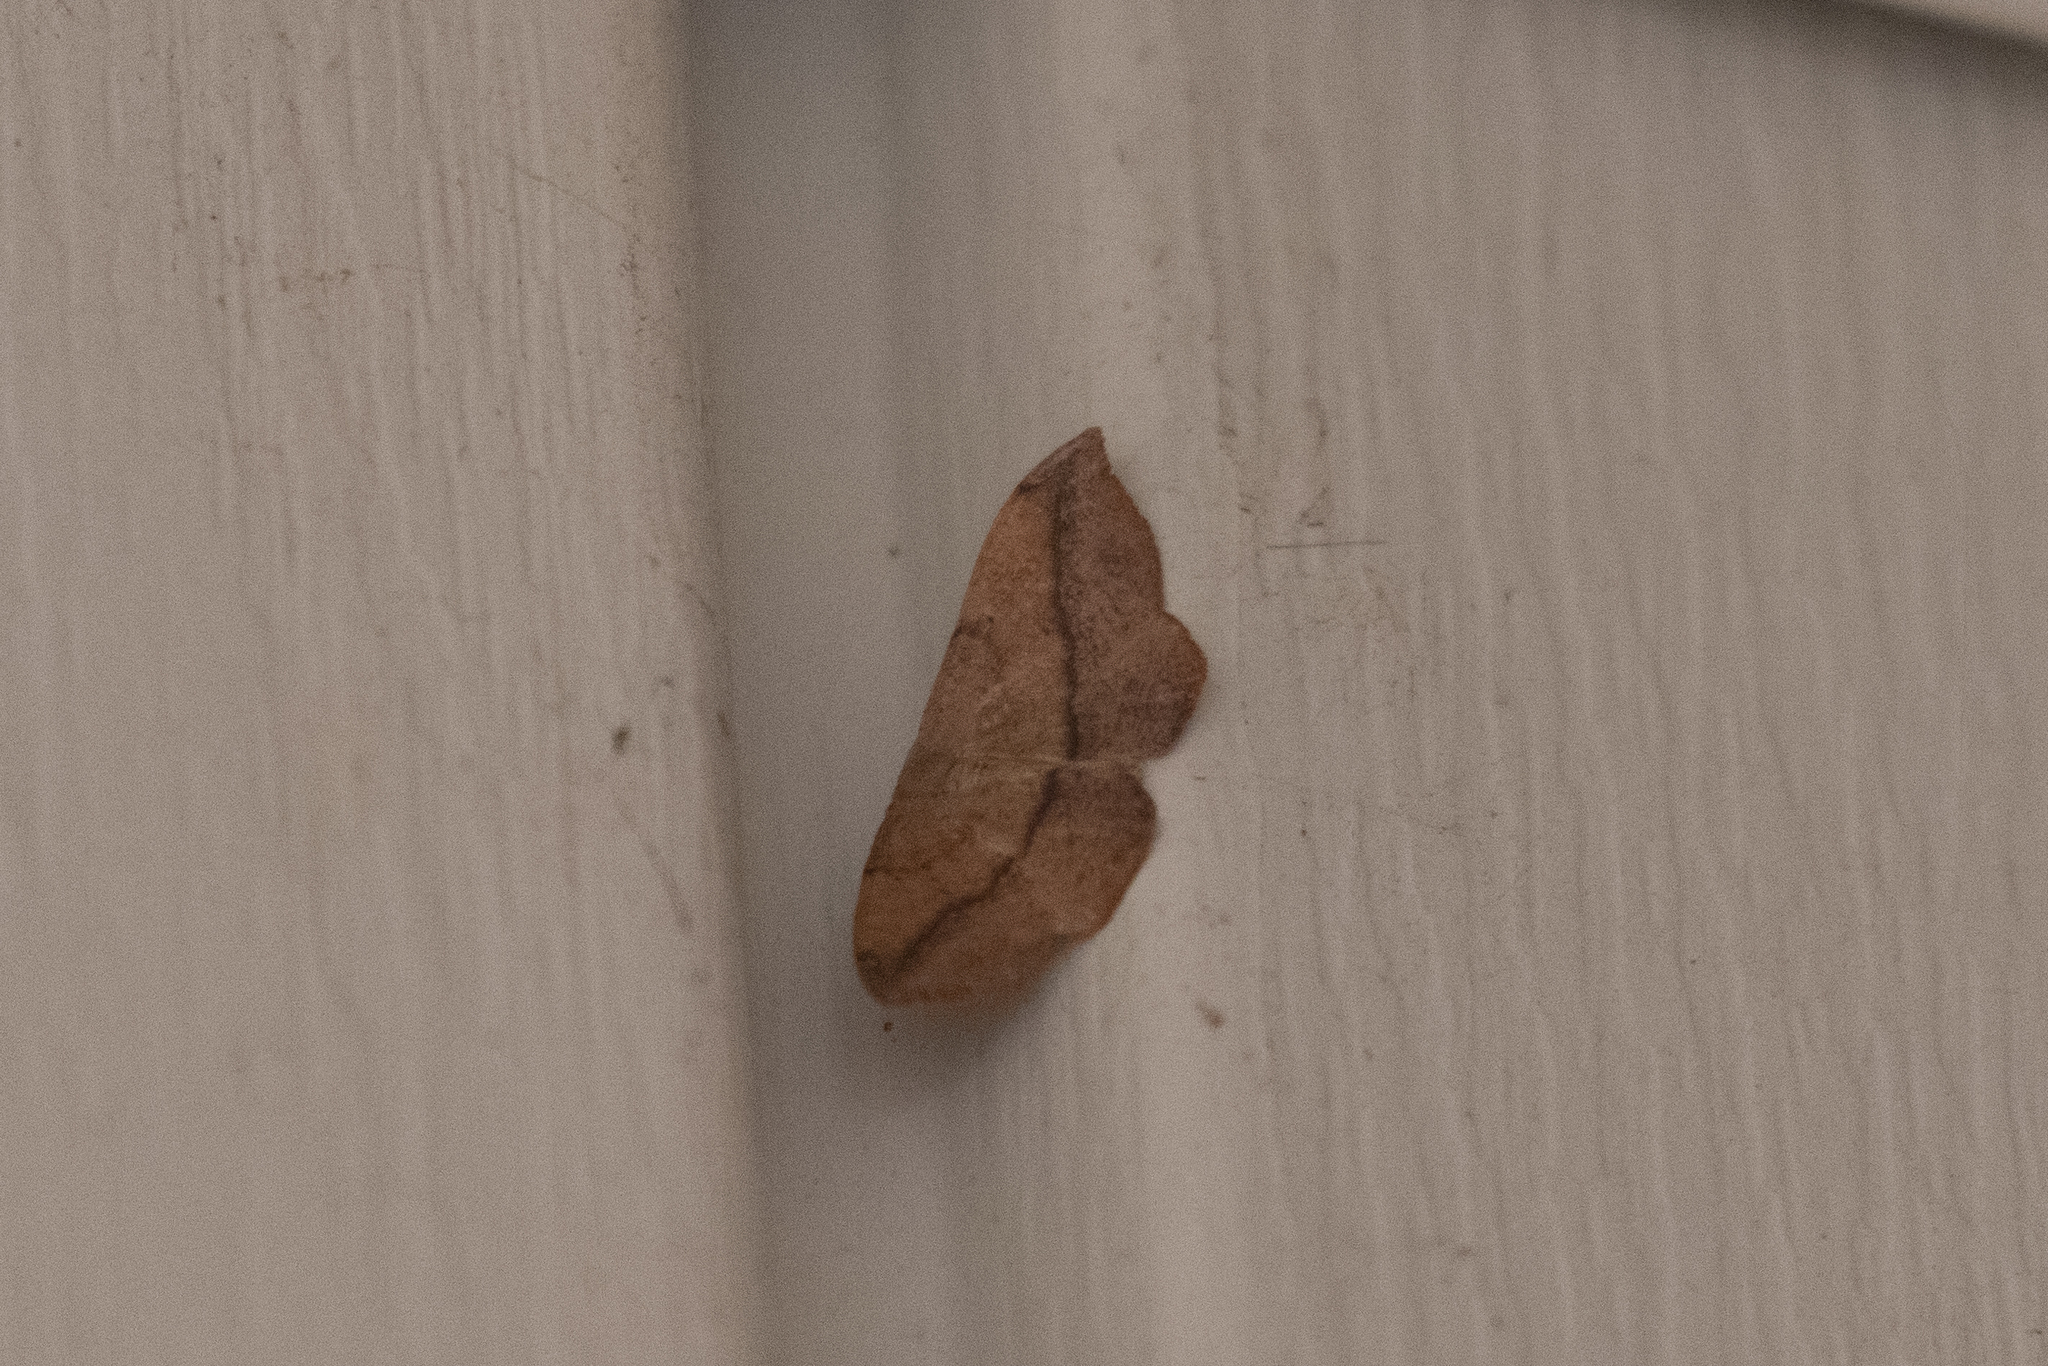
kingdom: Animalia
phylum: Arthropoda
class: Insecta
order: Lepidoptera
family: Geometridae
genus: Patalene
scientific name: Patalene olyzonaria
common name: Juniper geometer moth
